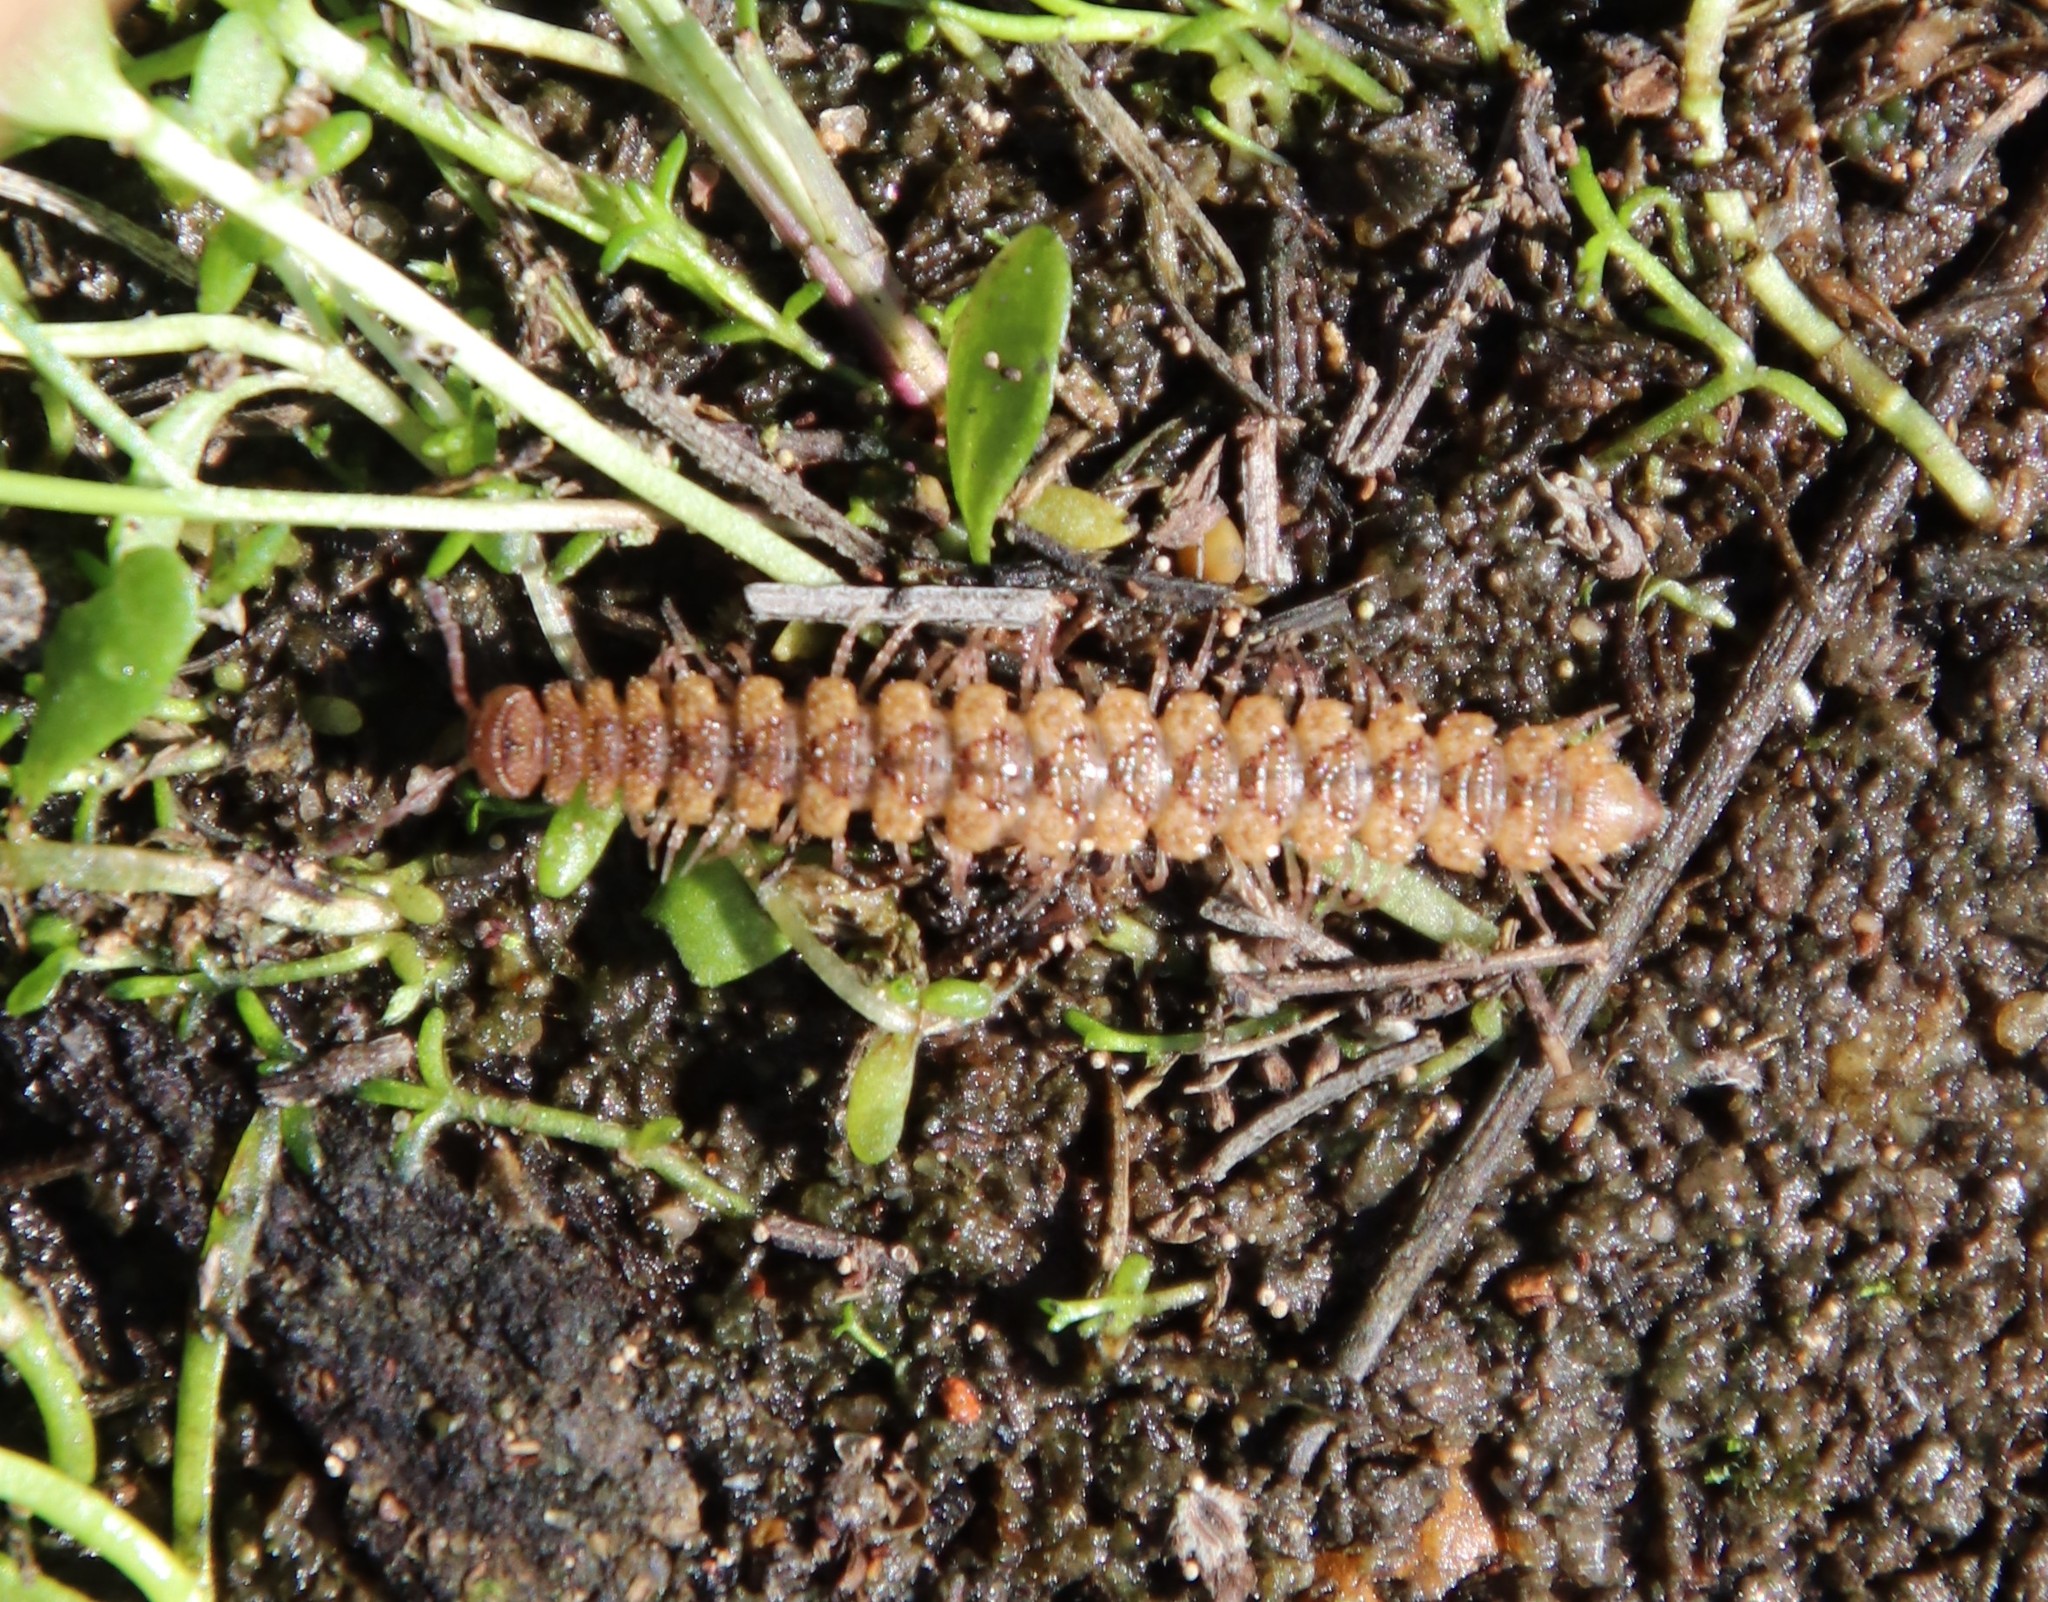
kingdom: Animalia
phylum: Arthropoda
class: Diplopoda
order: Polydesmida
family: Nearctodesmidae
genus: Harpogonopus
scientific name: Harpogonopus confluentus
